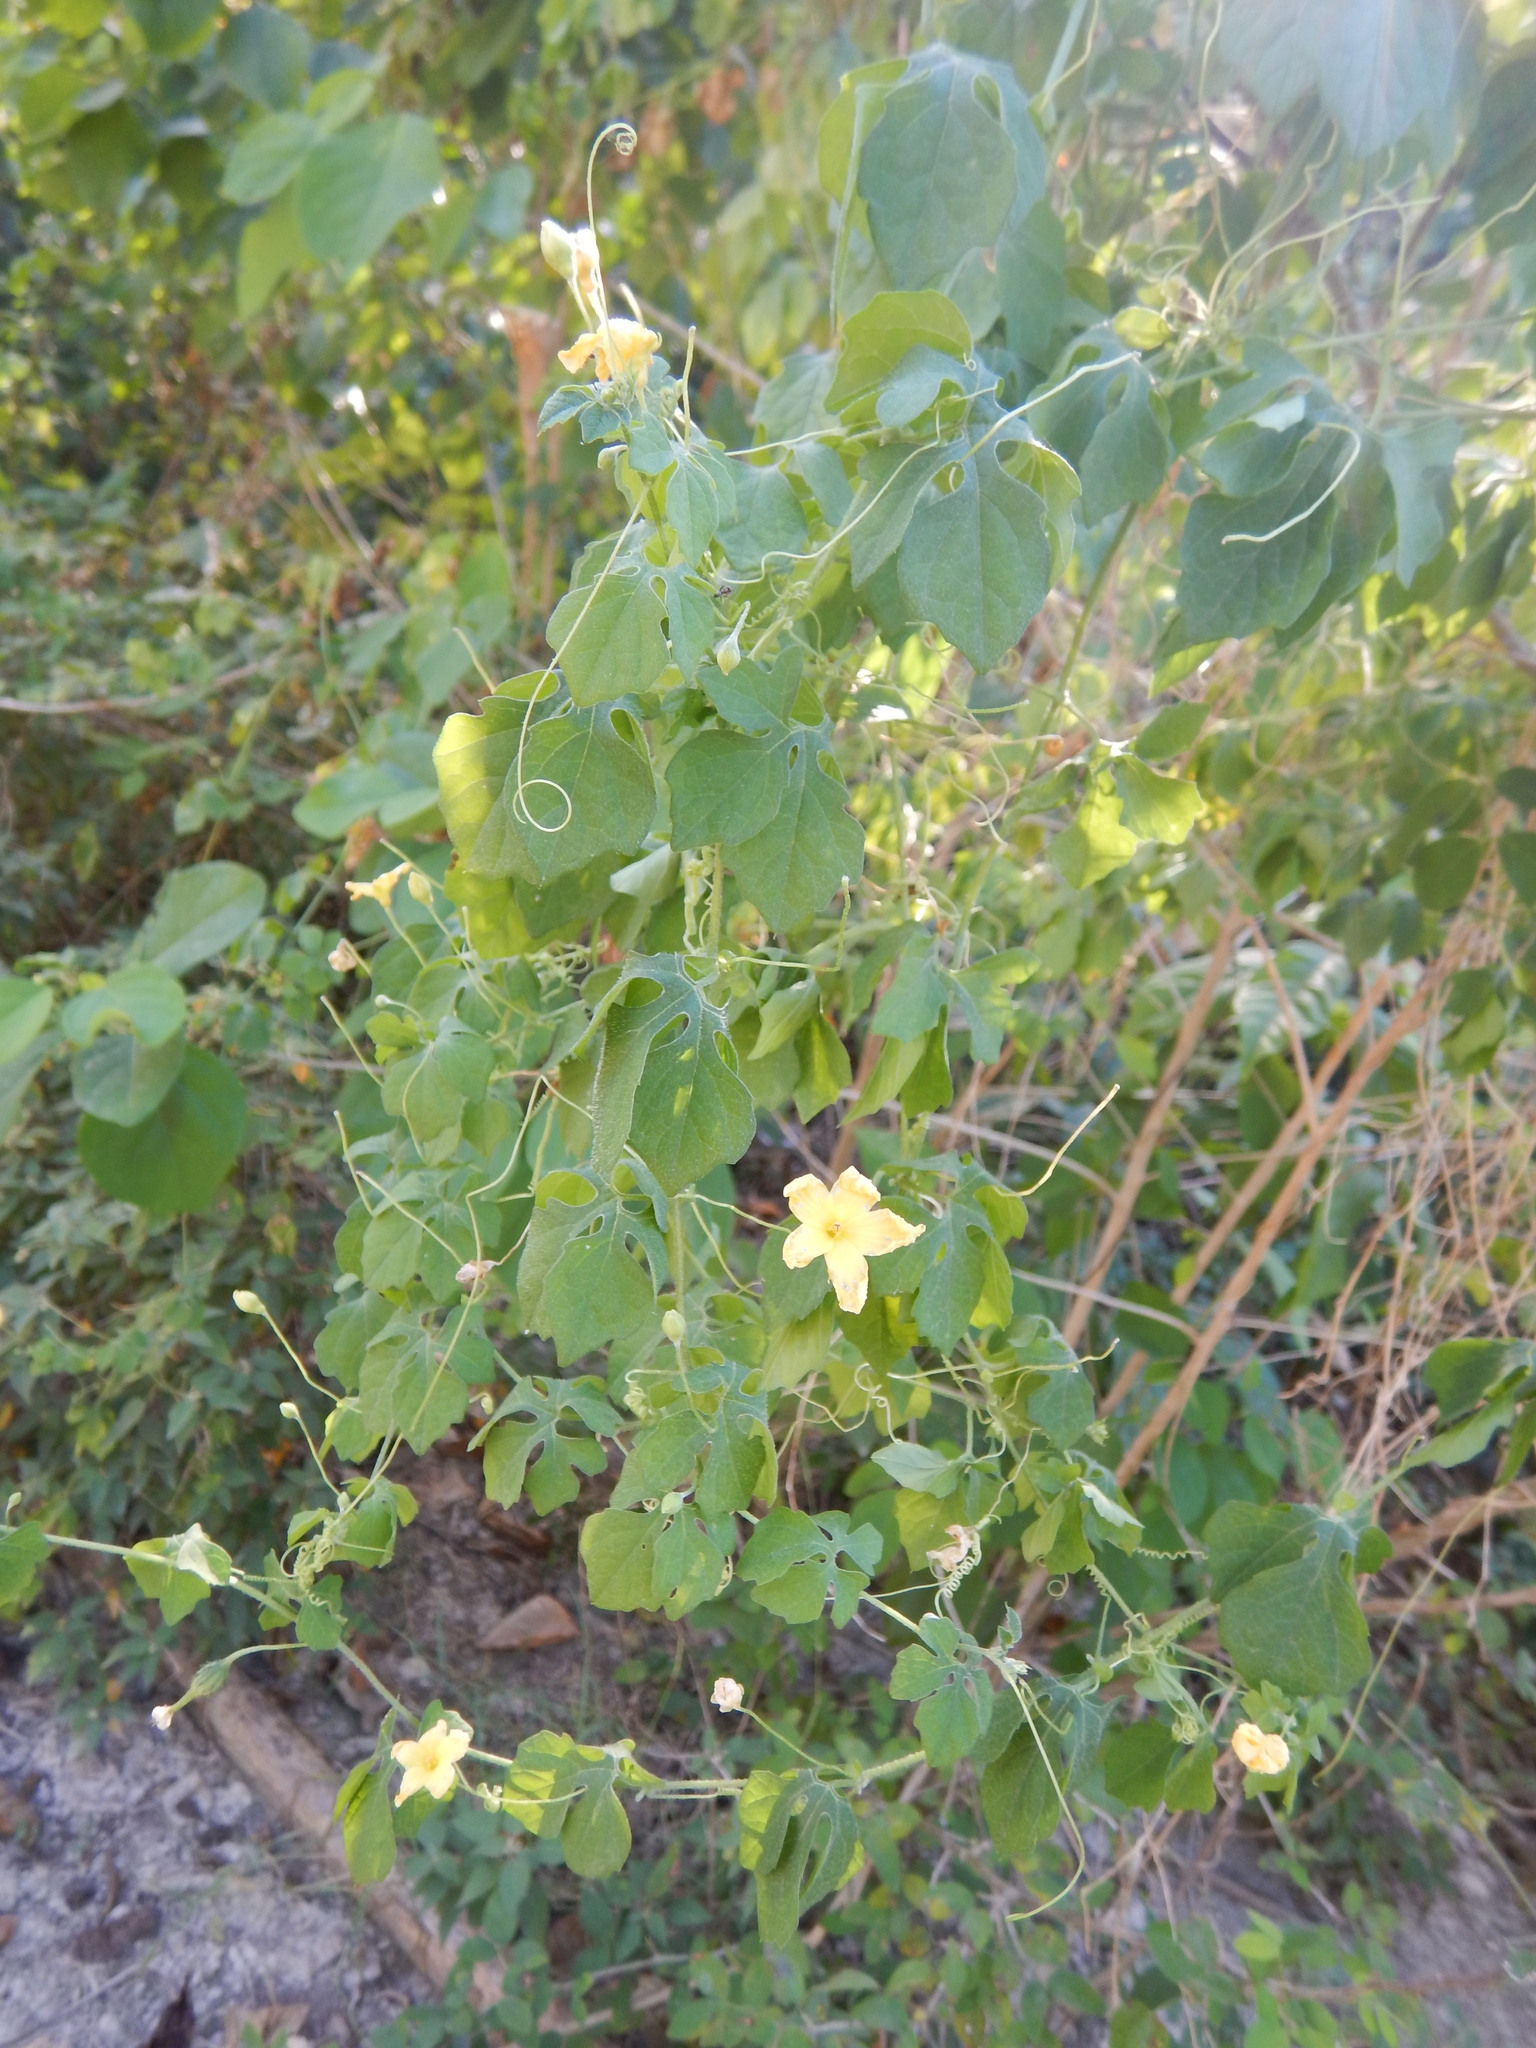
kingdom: Plantae
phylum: Tracheophyta
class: Magnoliopsida
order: Cucurbitales
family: Cucurbitaceae
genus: Momordica
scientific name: Momordica charantia
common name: Balsampear
